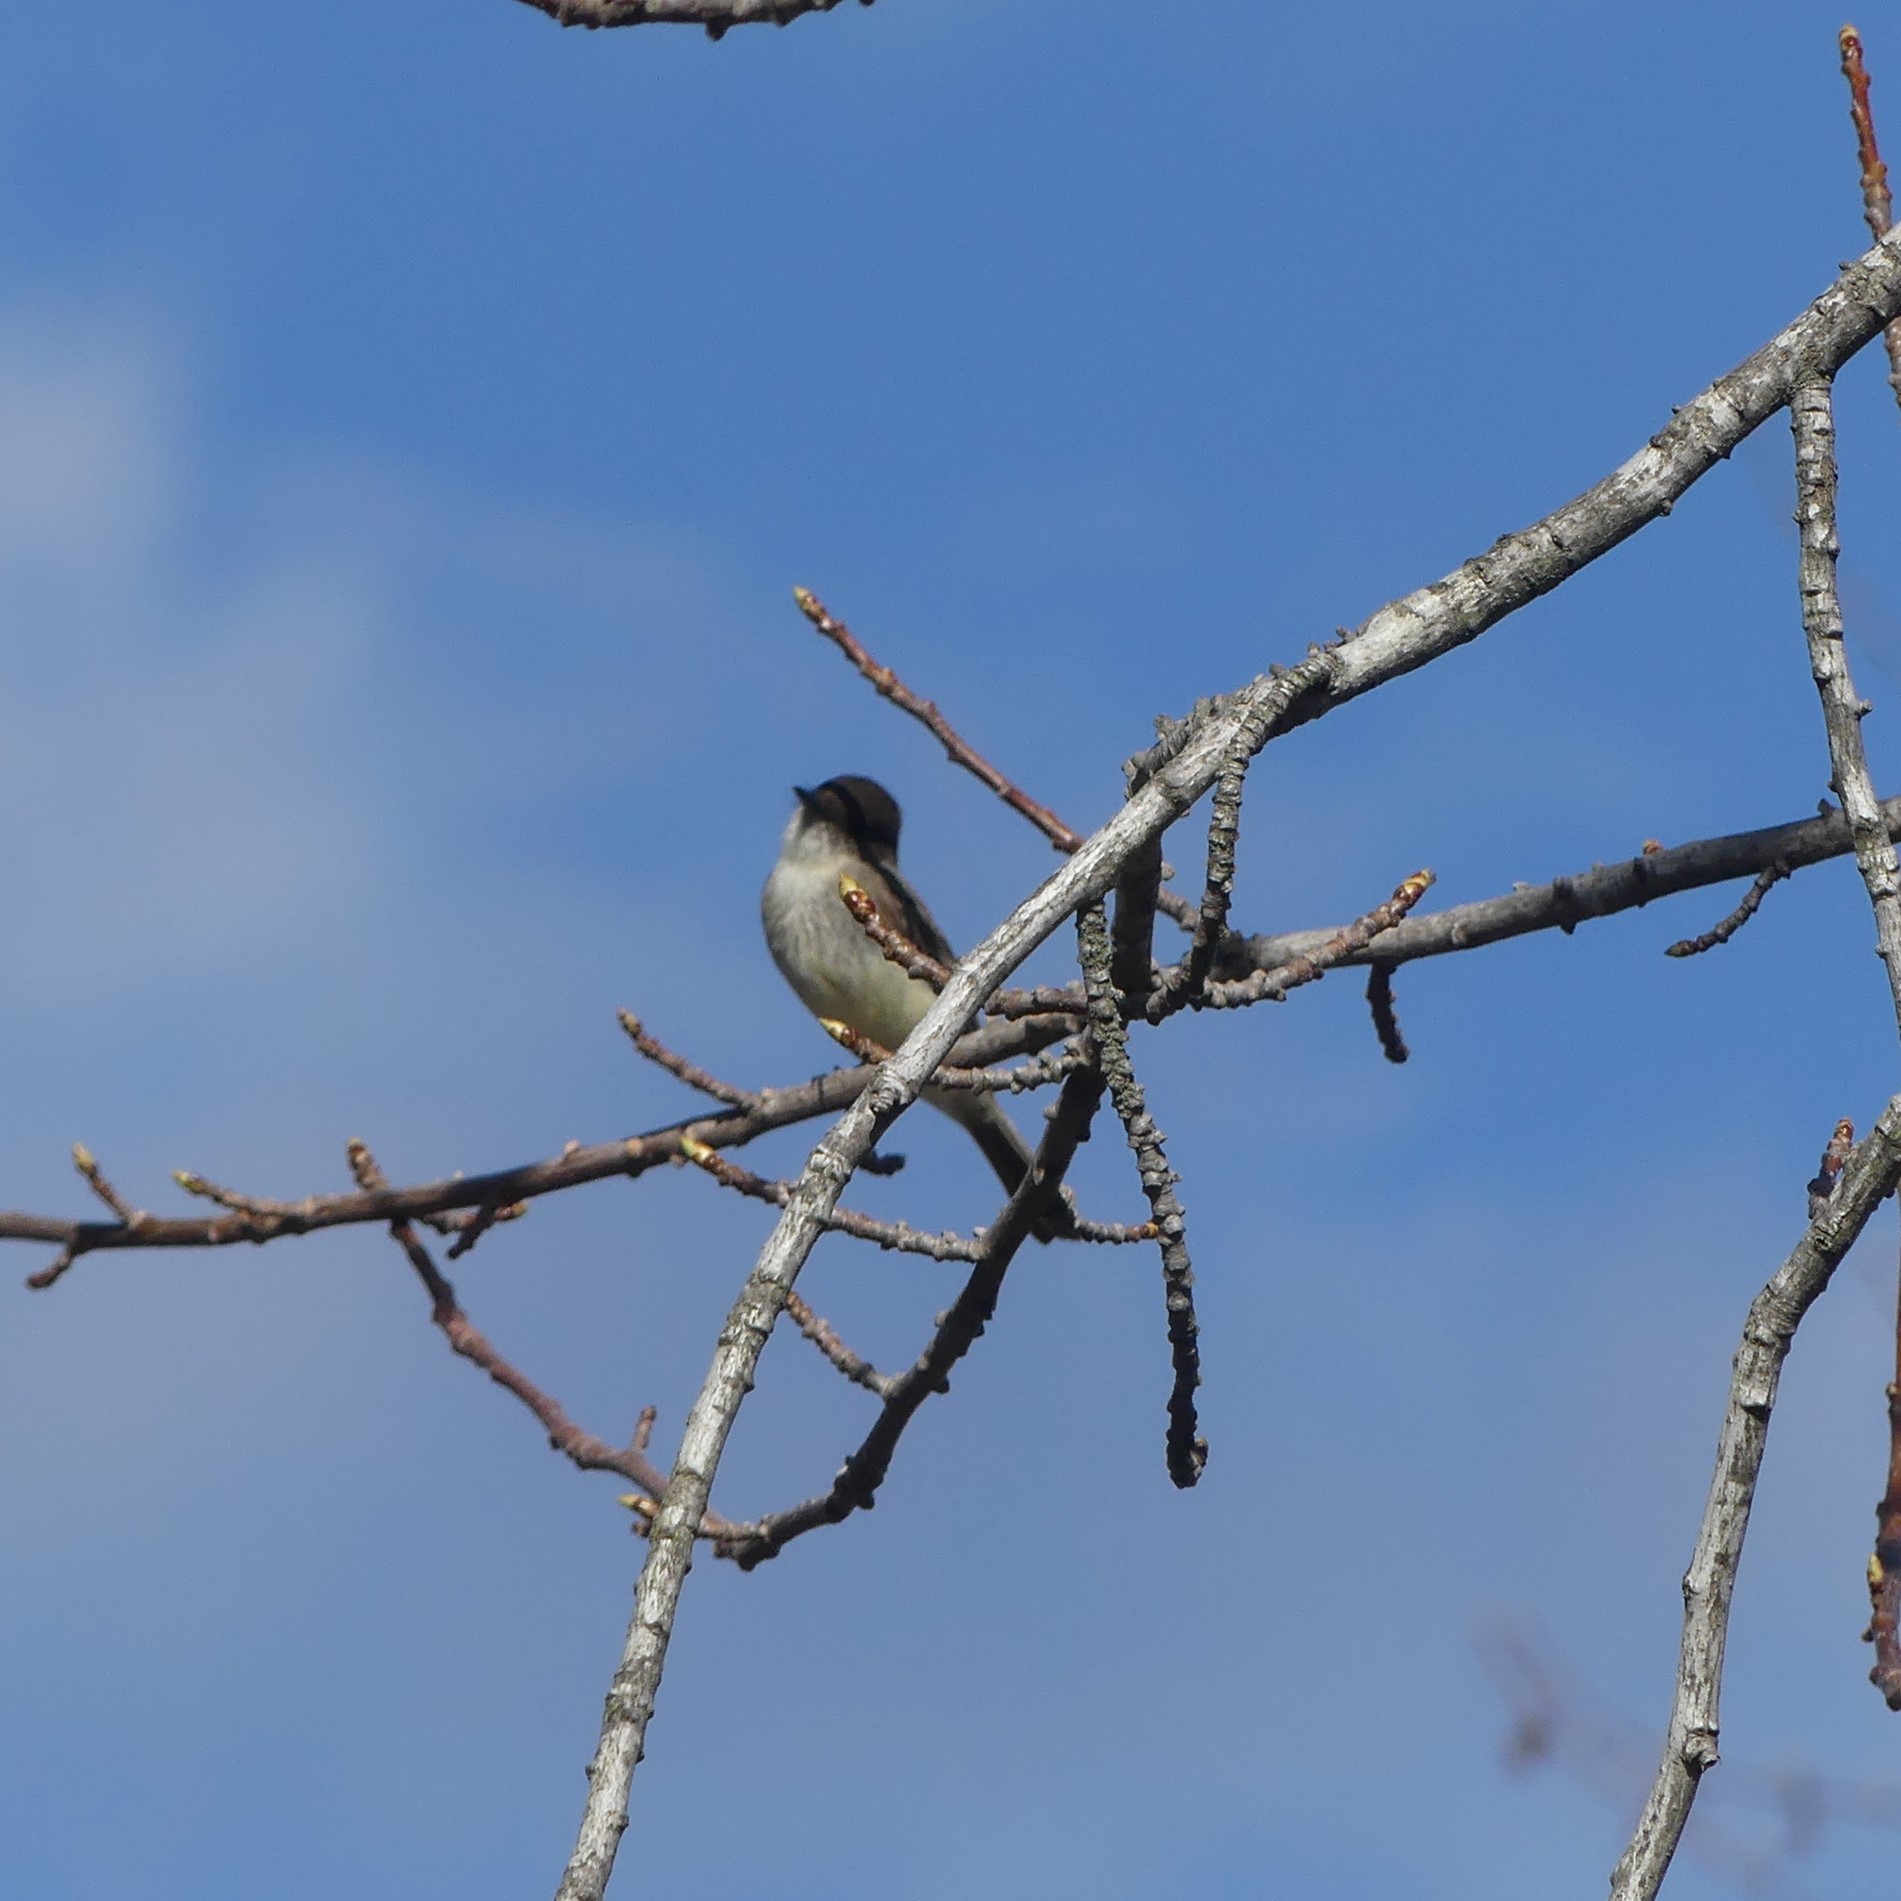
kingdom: Animalia
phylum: Chordata
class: Aves
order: Passeriformes
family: Tyrannidae
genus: Sayornis
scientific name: Sayornis phoebe
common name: Eastern phoebe
